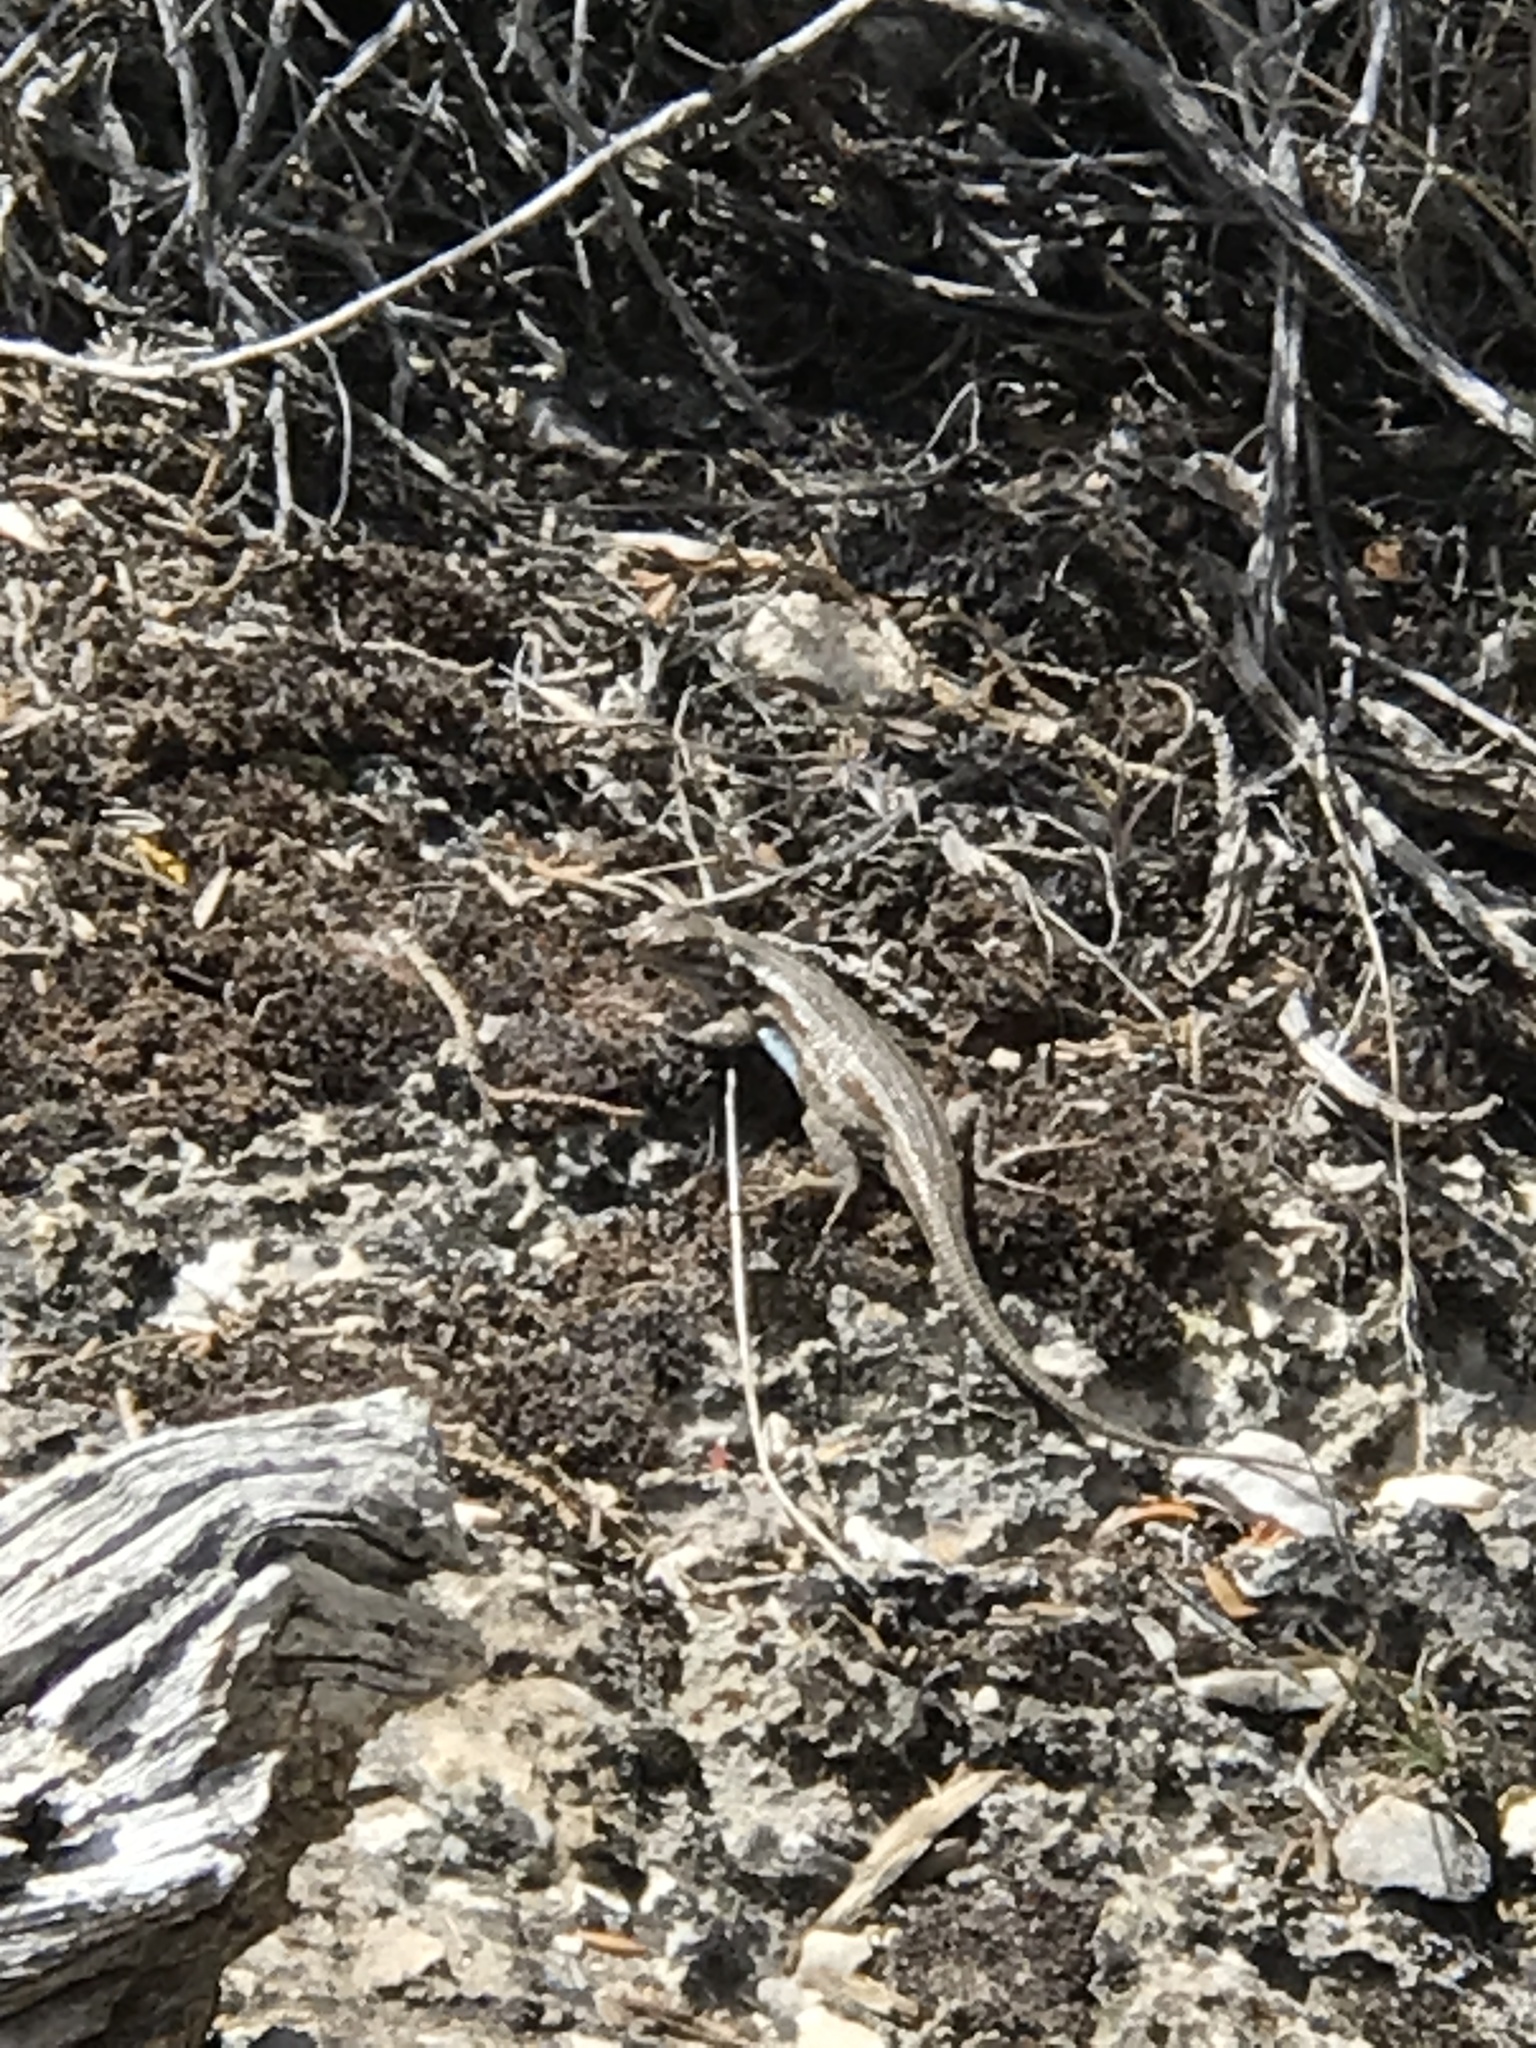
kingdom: Animalia
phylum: Chordata
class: Squamata
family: Phrynosomatidae
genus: Sceloporus
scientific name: Sceloporus graciosus
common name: Sagebrush lizard
